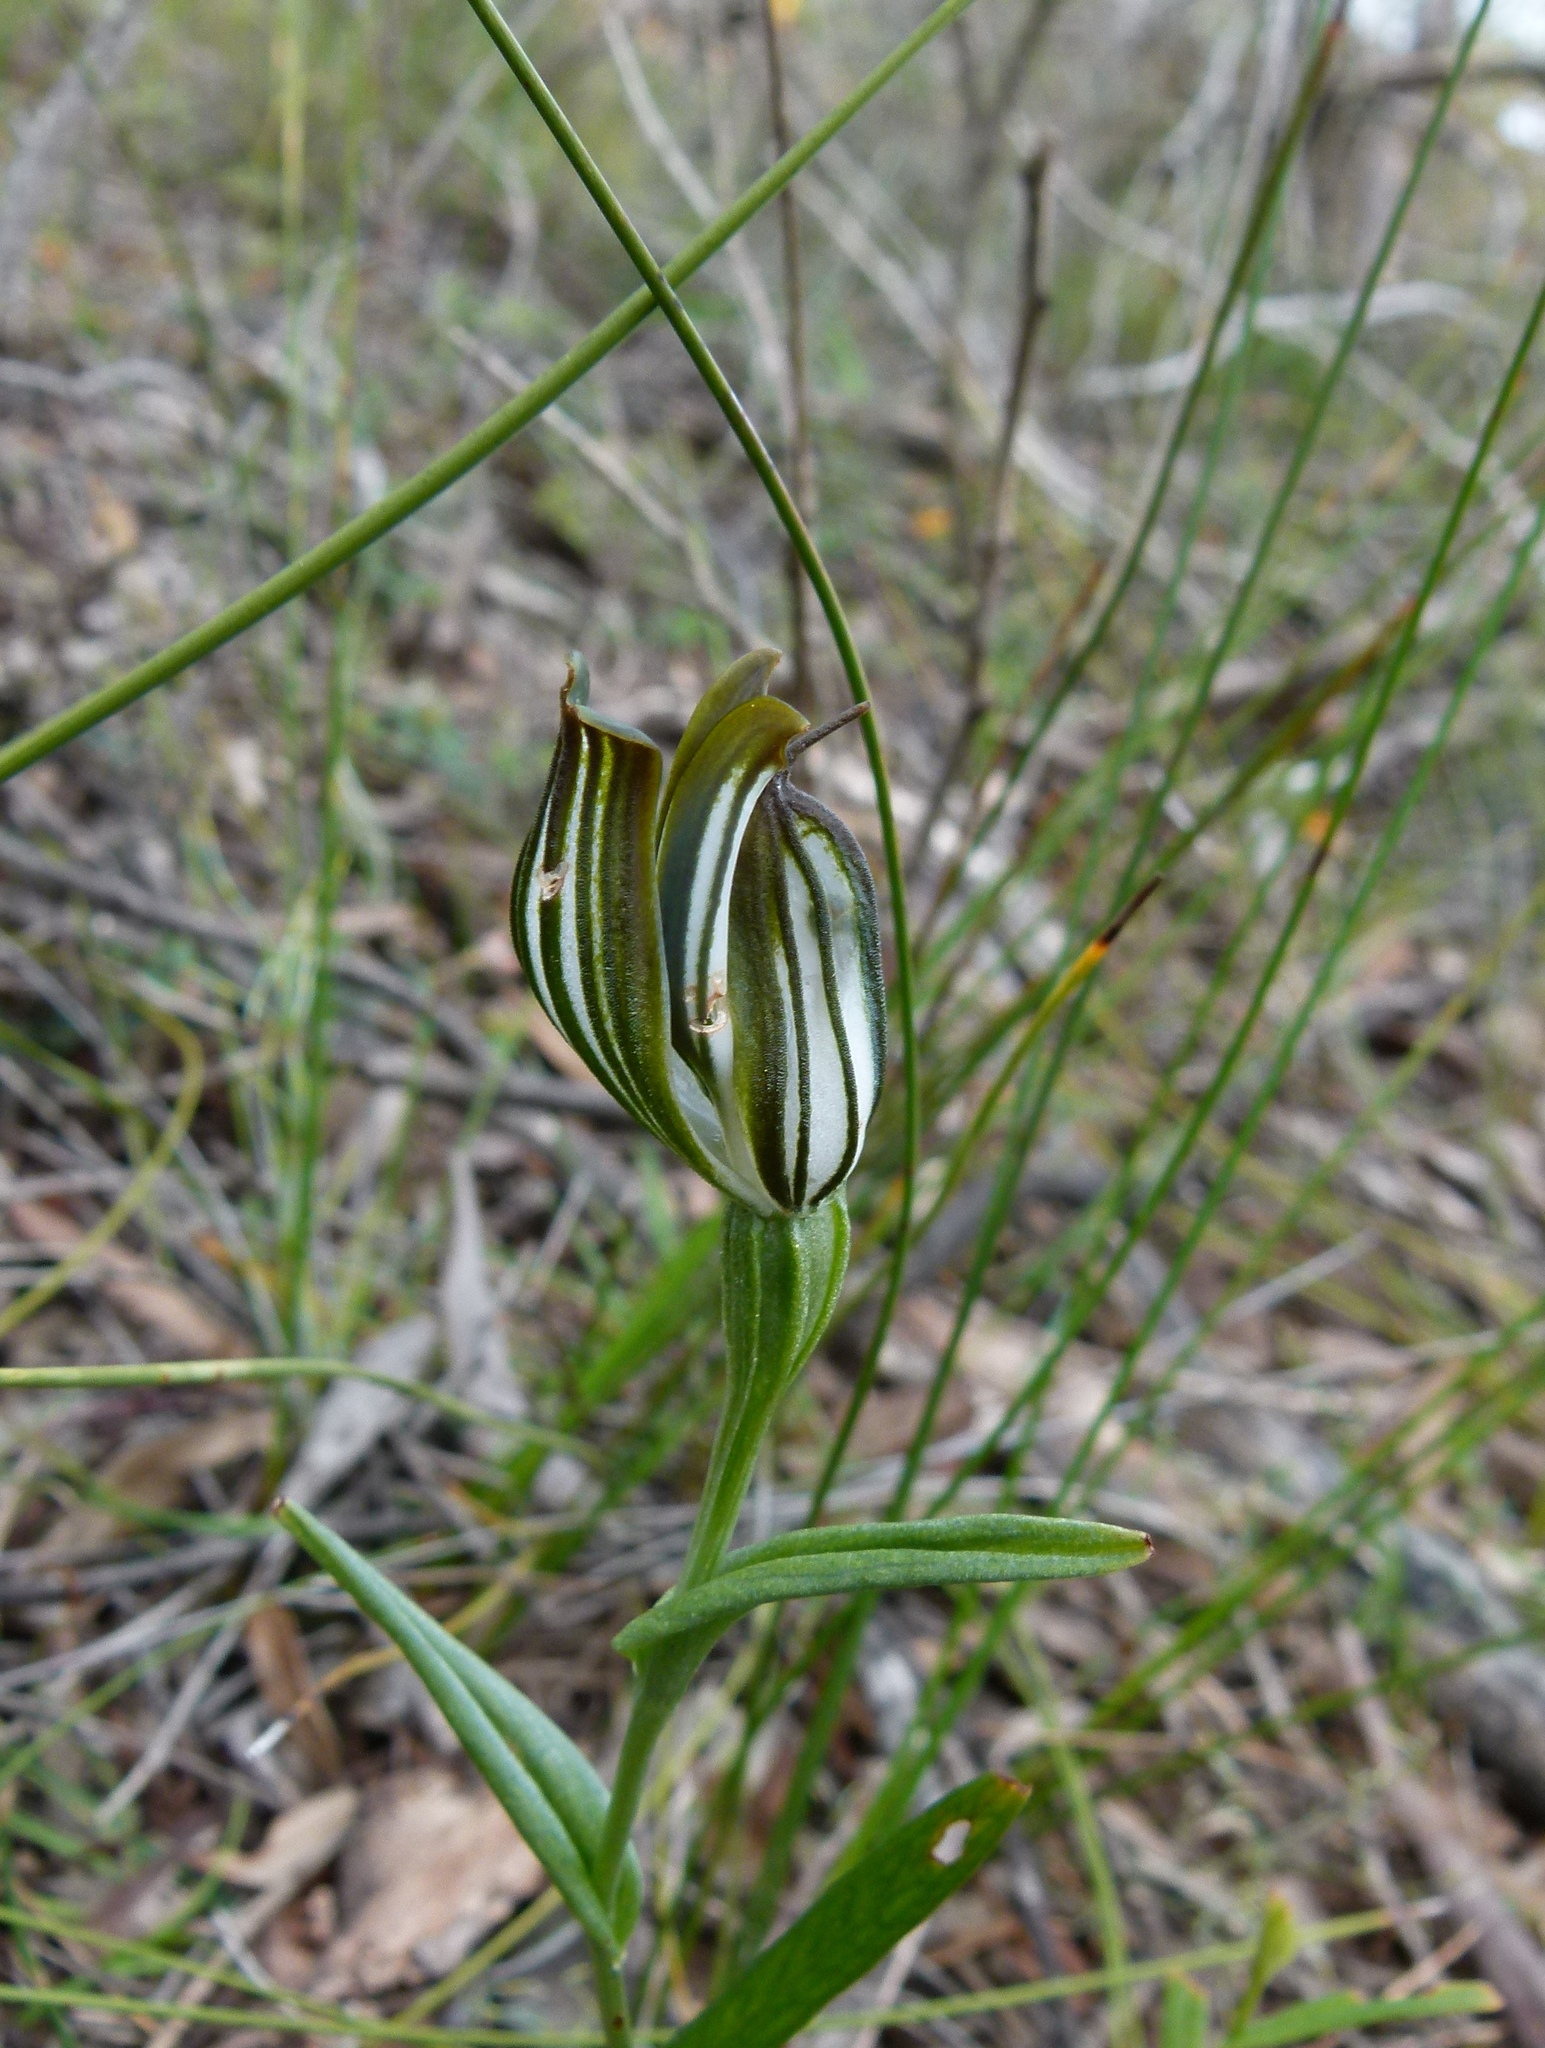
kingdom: Plantae
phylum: Tracheophyta
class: Liliopsida
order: Asparagales
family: Orchidaceae
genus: Pterostylis
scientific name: Pterostylis recurva
